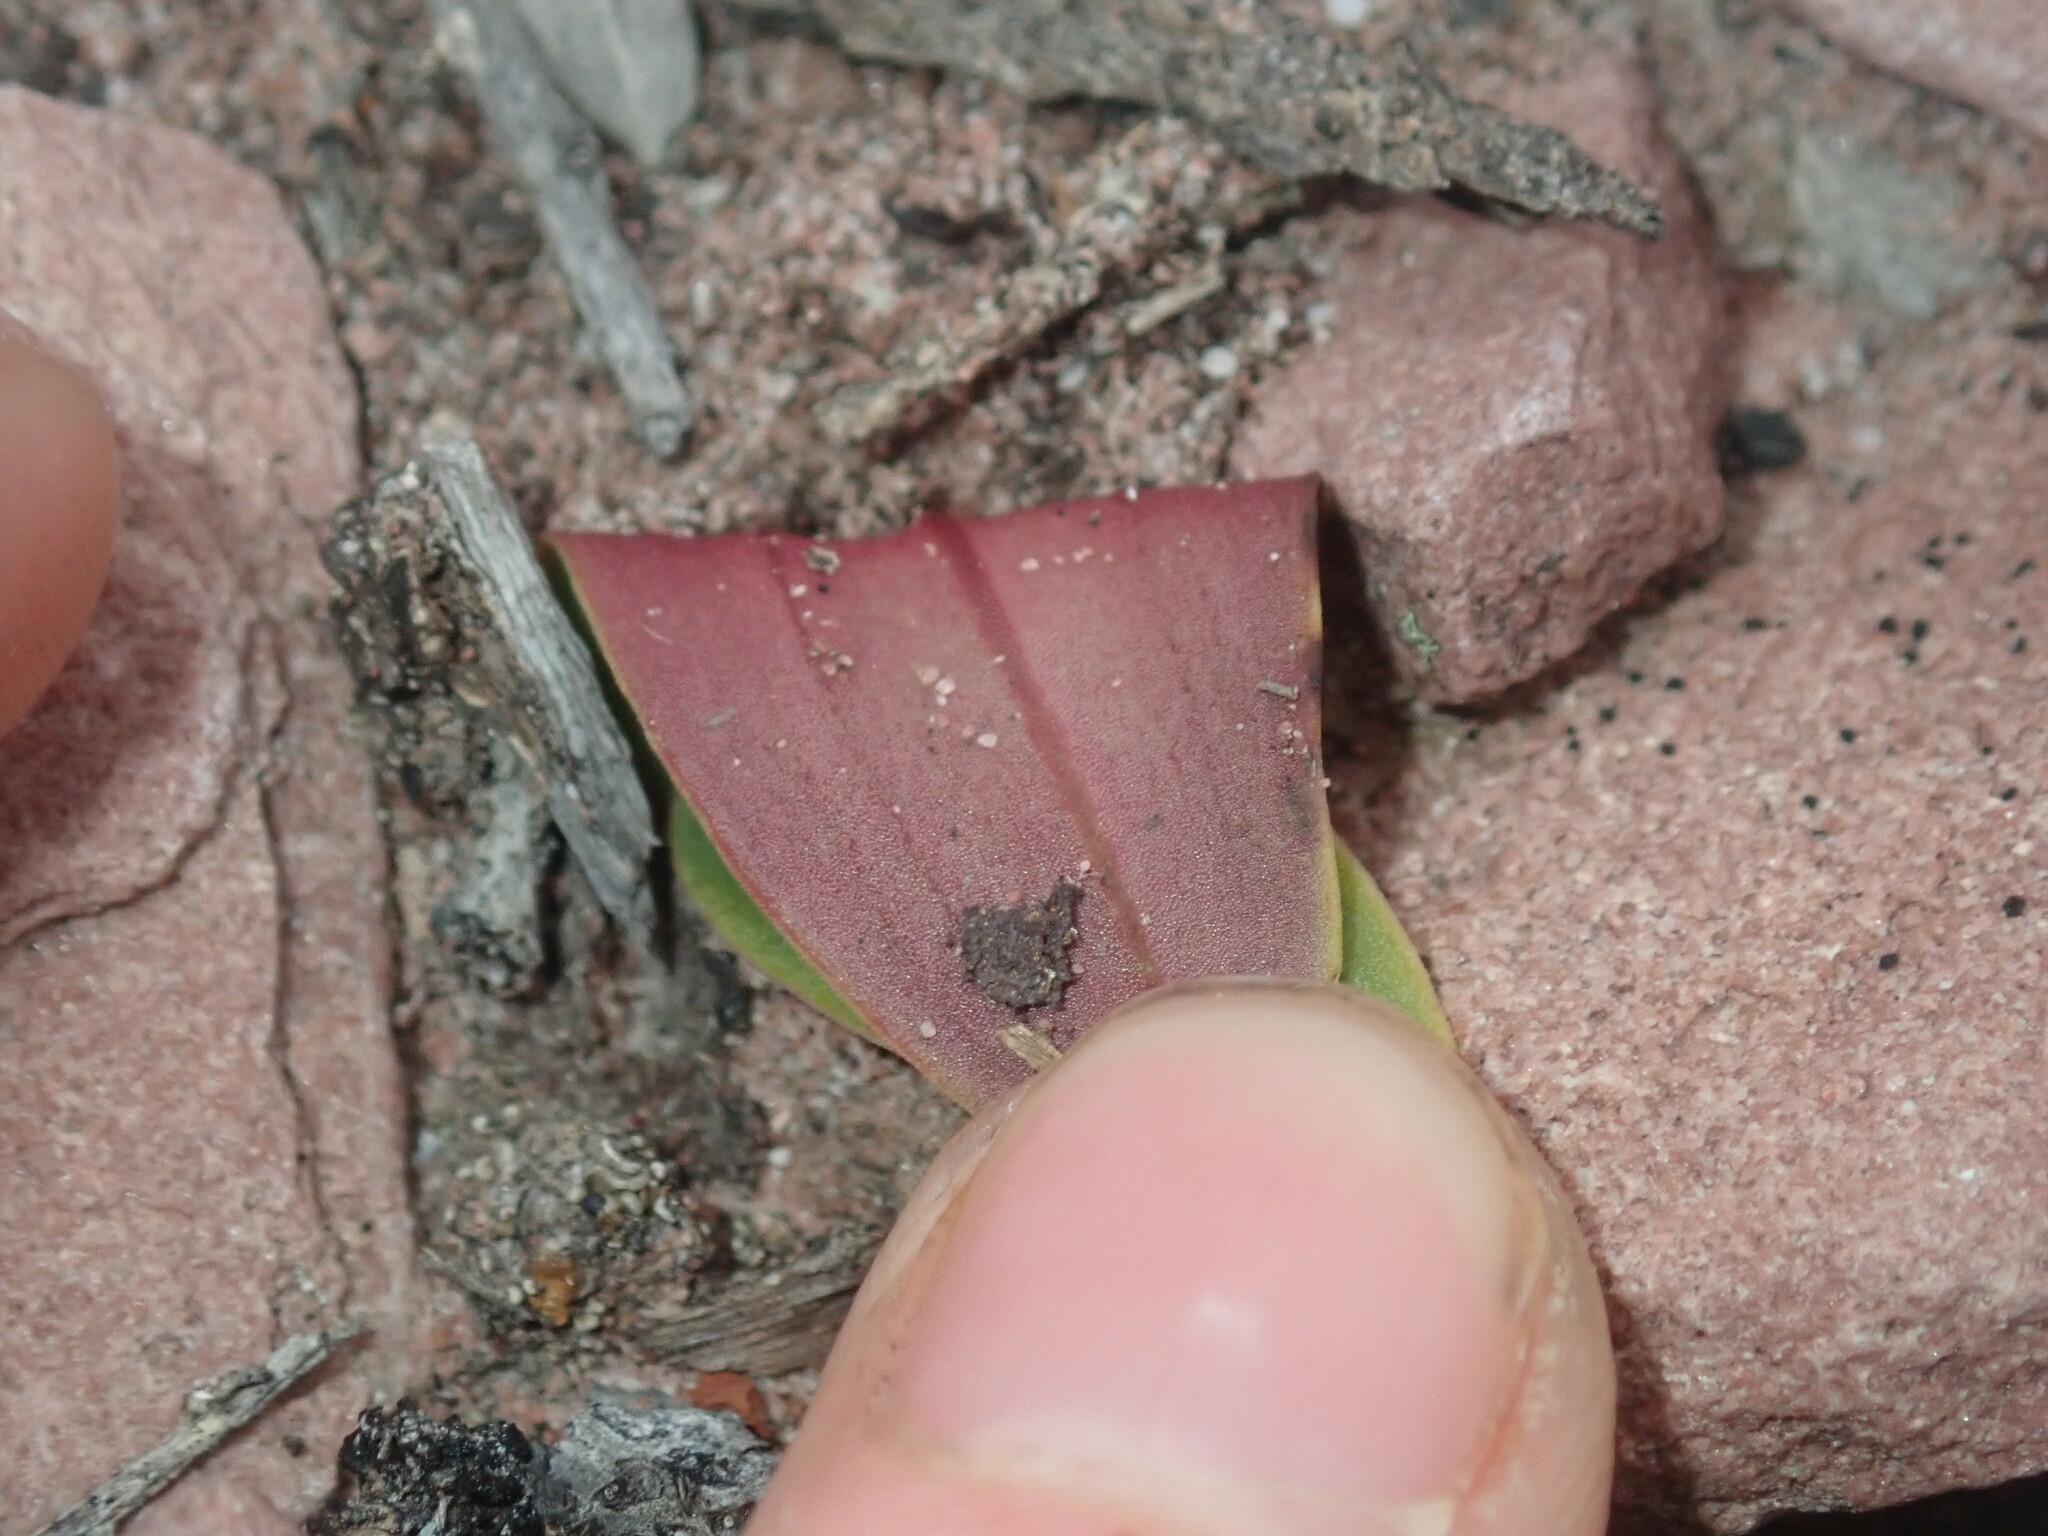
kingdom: Plantae
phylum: Tracheophyta
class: Liliopsida
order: Asparagales
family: Orchidaceae
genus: Leporella
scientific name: Leporella fimbriata
